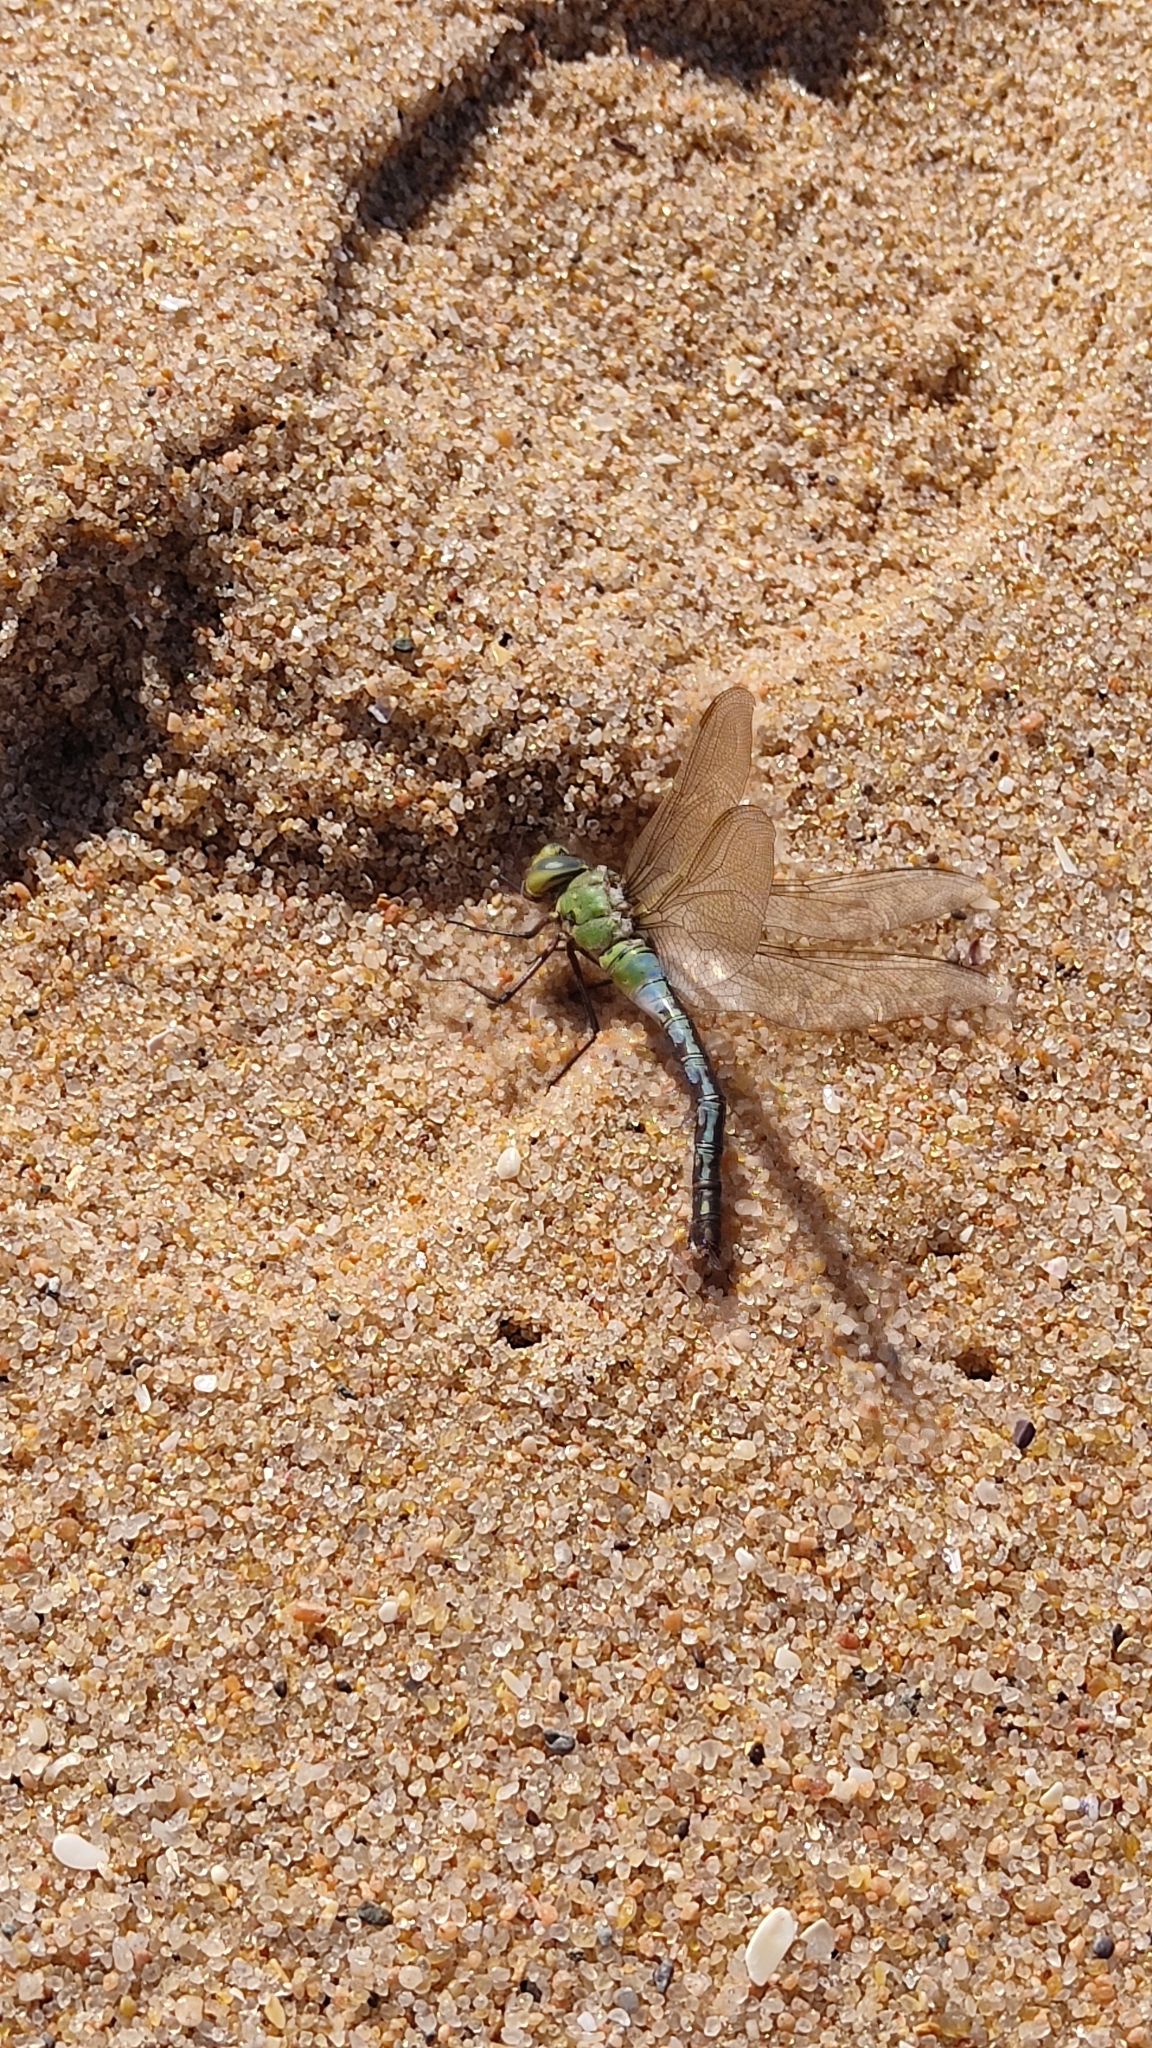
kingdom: Animalia
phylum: Arthropoda
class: Insecta
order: Odonata
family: Aeshnidae
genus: Anax
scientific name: Anax imperator
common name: Emperor dragonfly
